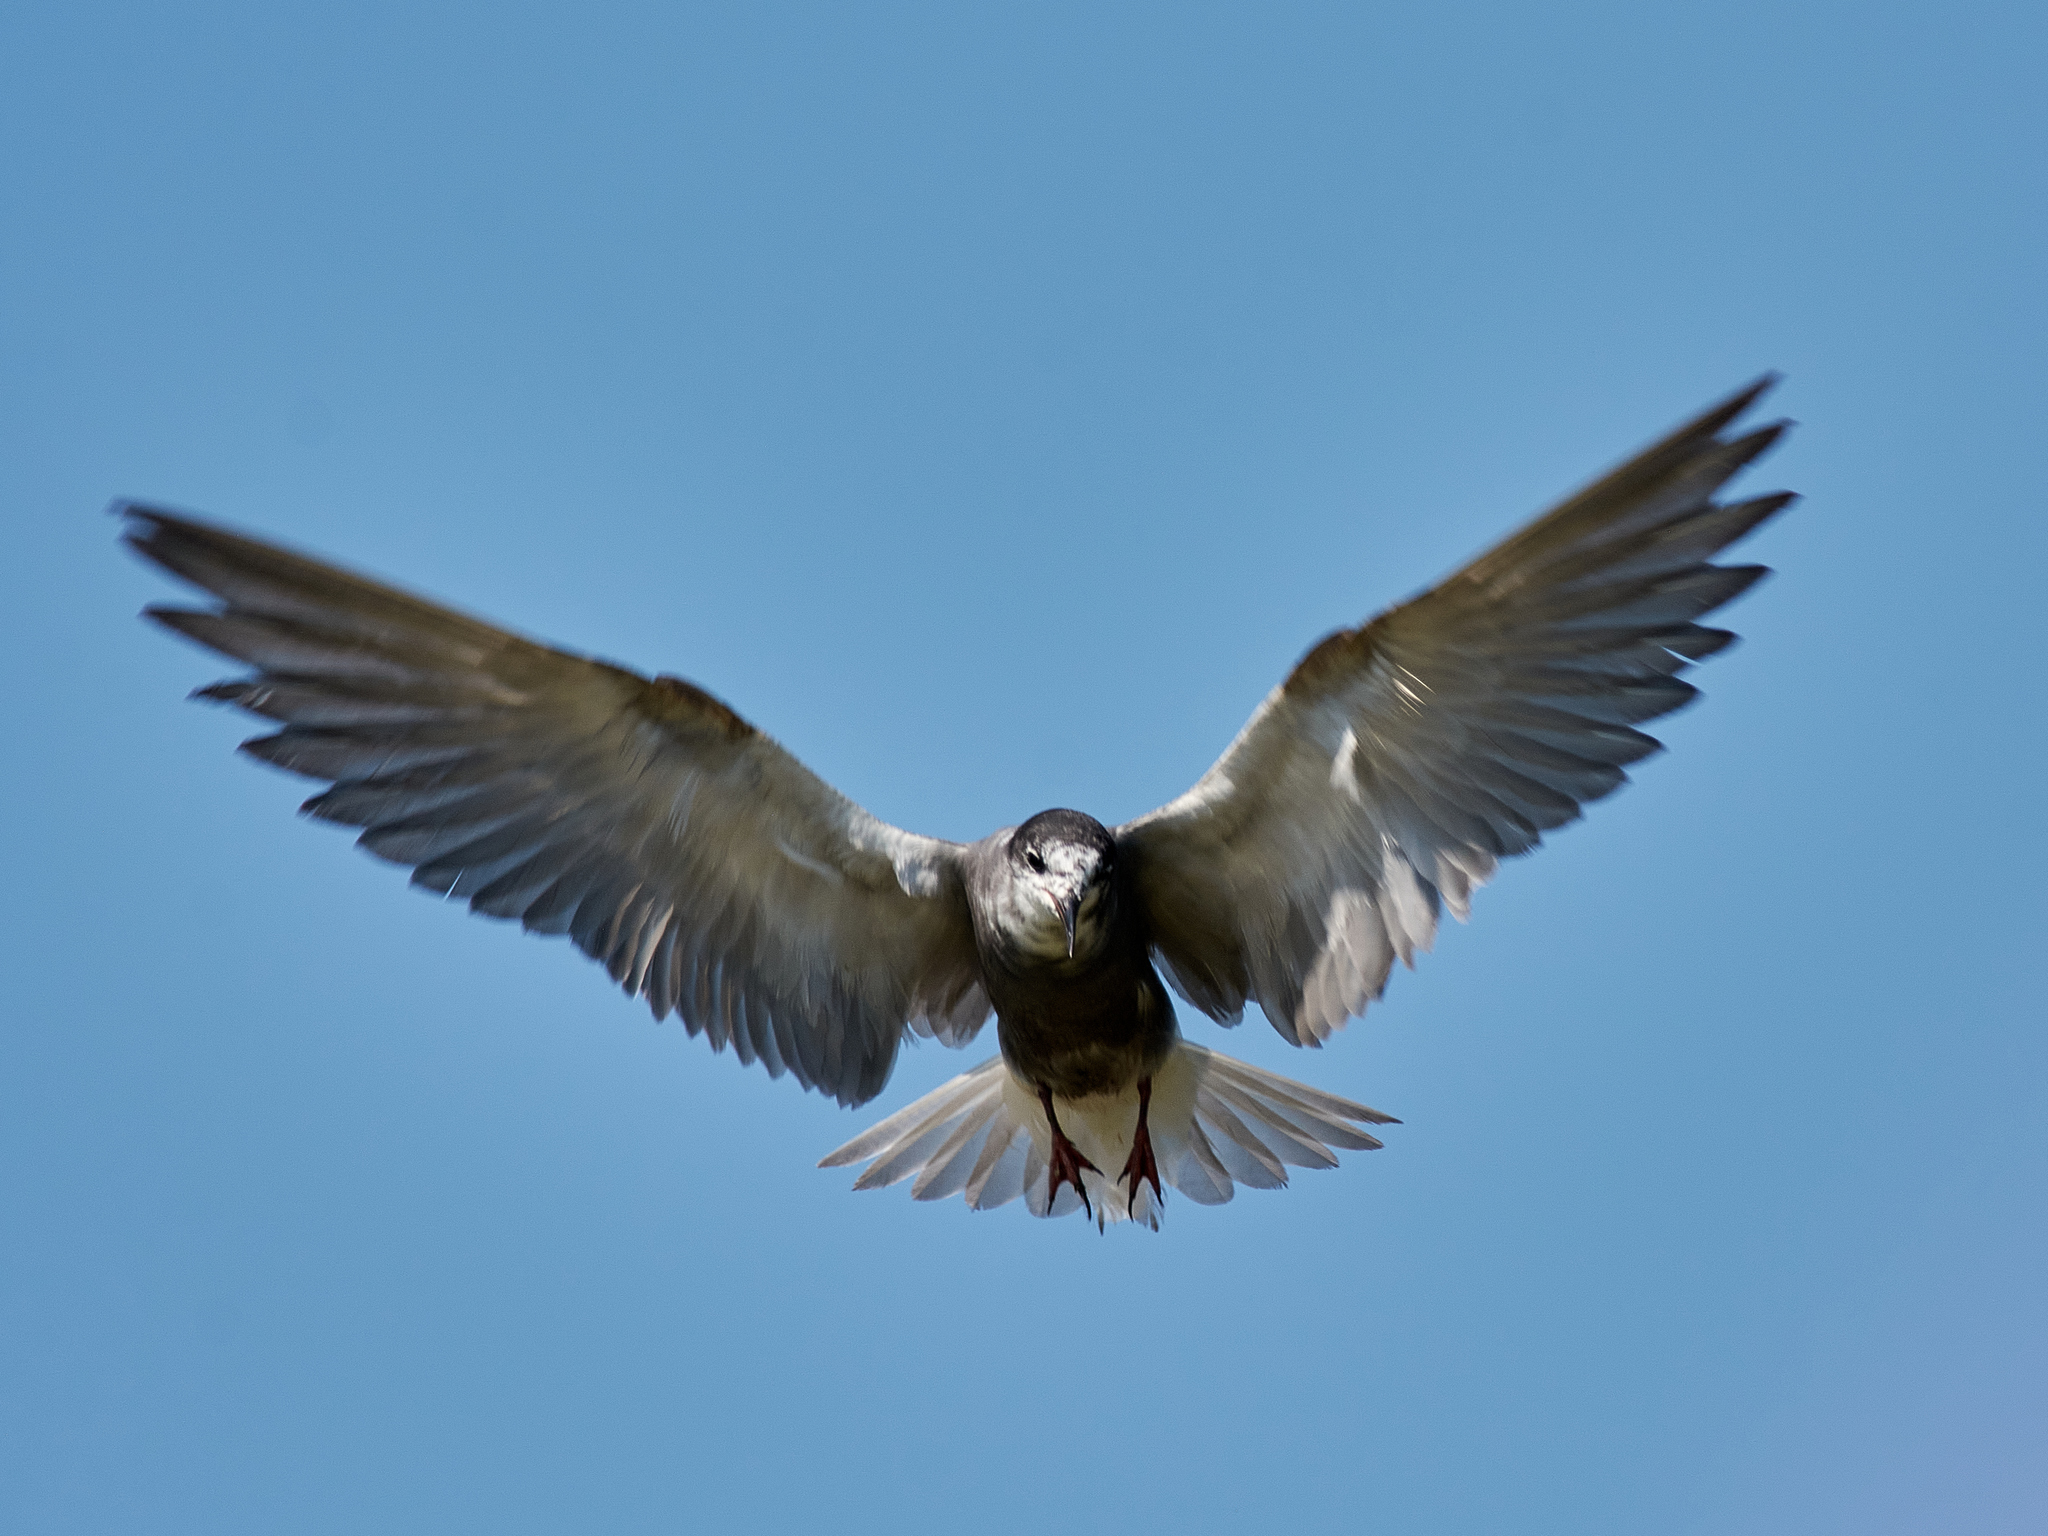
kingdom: Animalia
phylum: Chordata
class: Aves
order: Charadriiformes
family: Laridae
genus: Chlidonias
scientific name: Chlidonias niger
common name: Black tern
